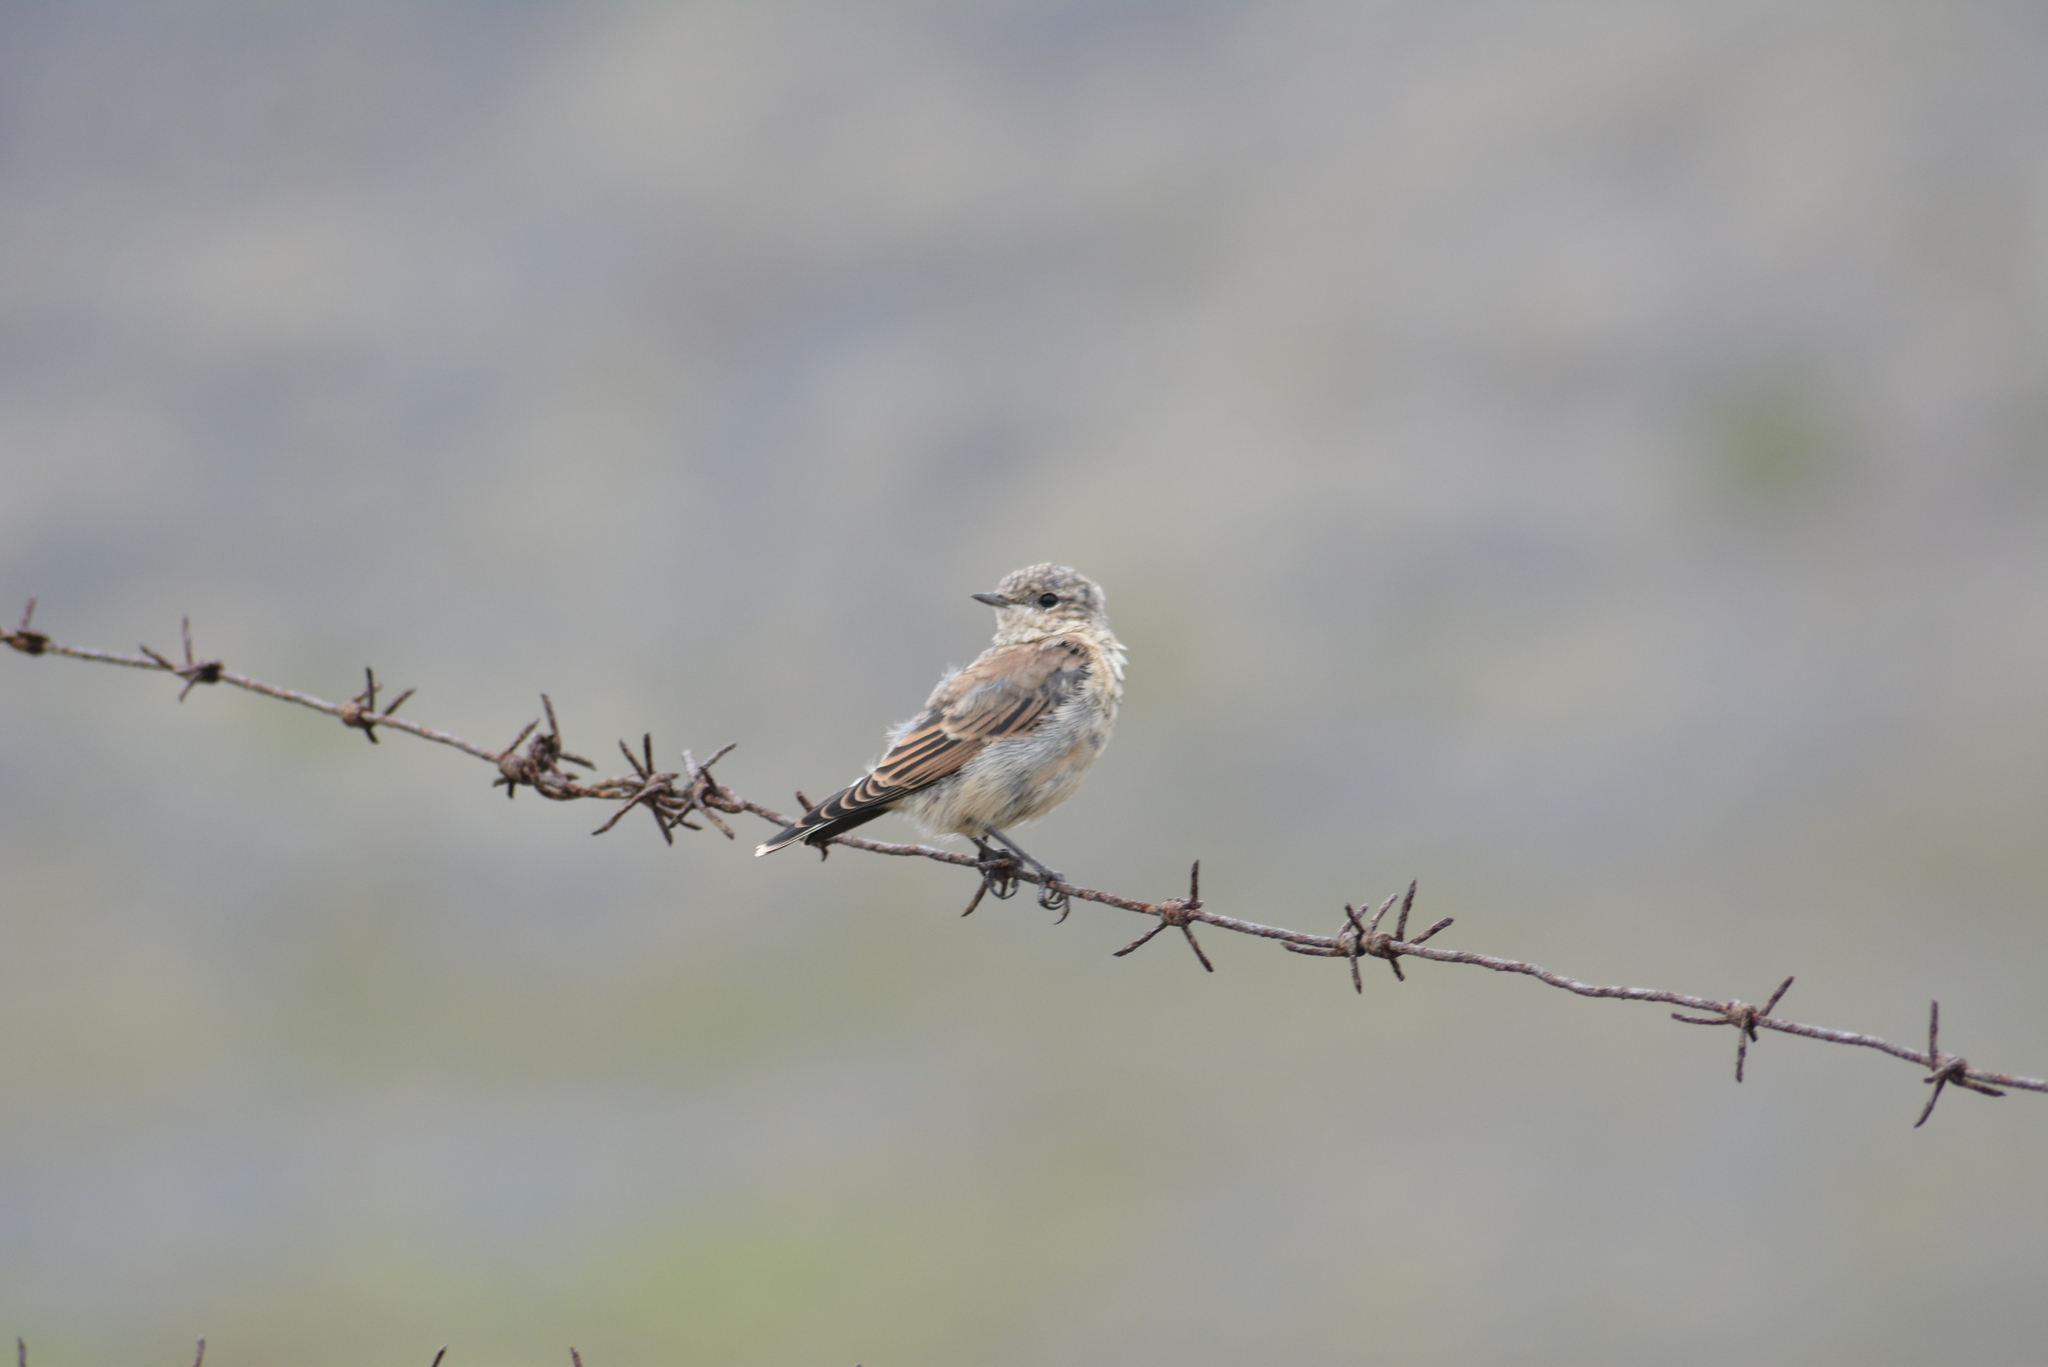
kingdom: Animalia
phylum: Chordata
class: Aves
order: Passeriformes
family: Muscicapidae
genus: Oenanthe
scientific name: Oenanthe oenanthe
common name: Northern wheatear
